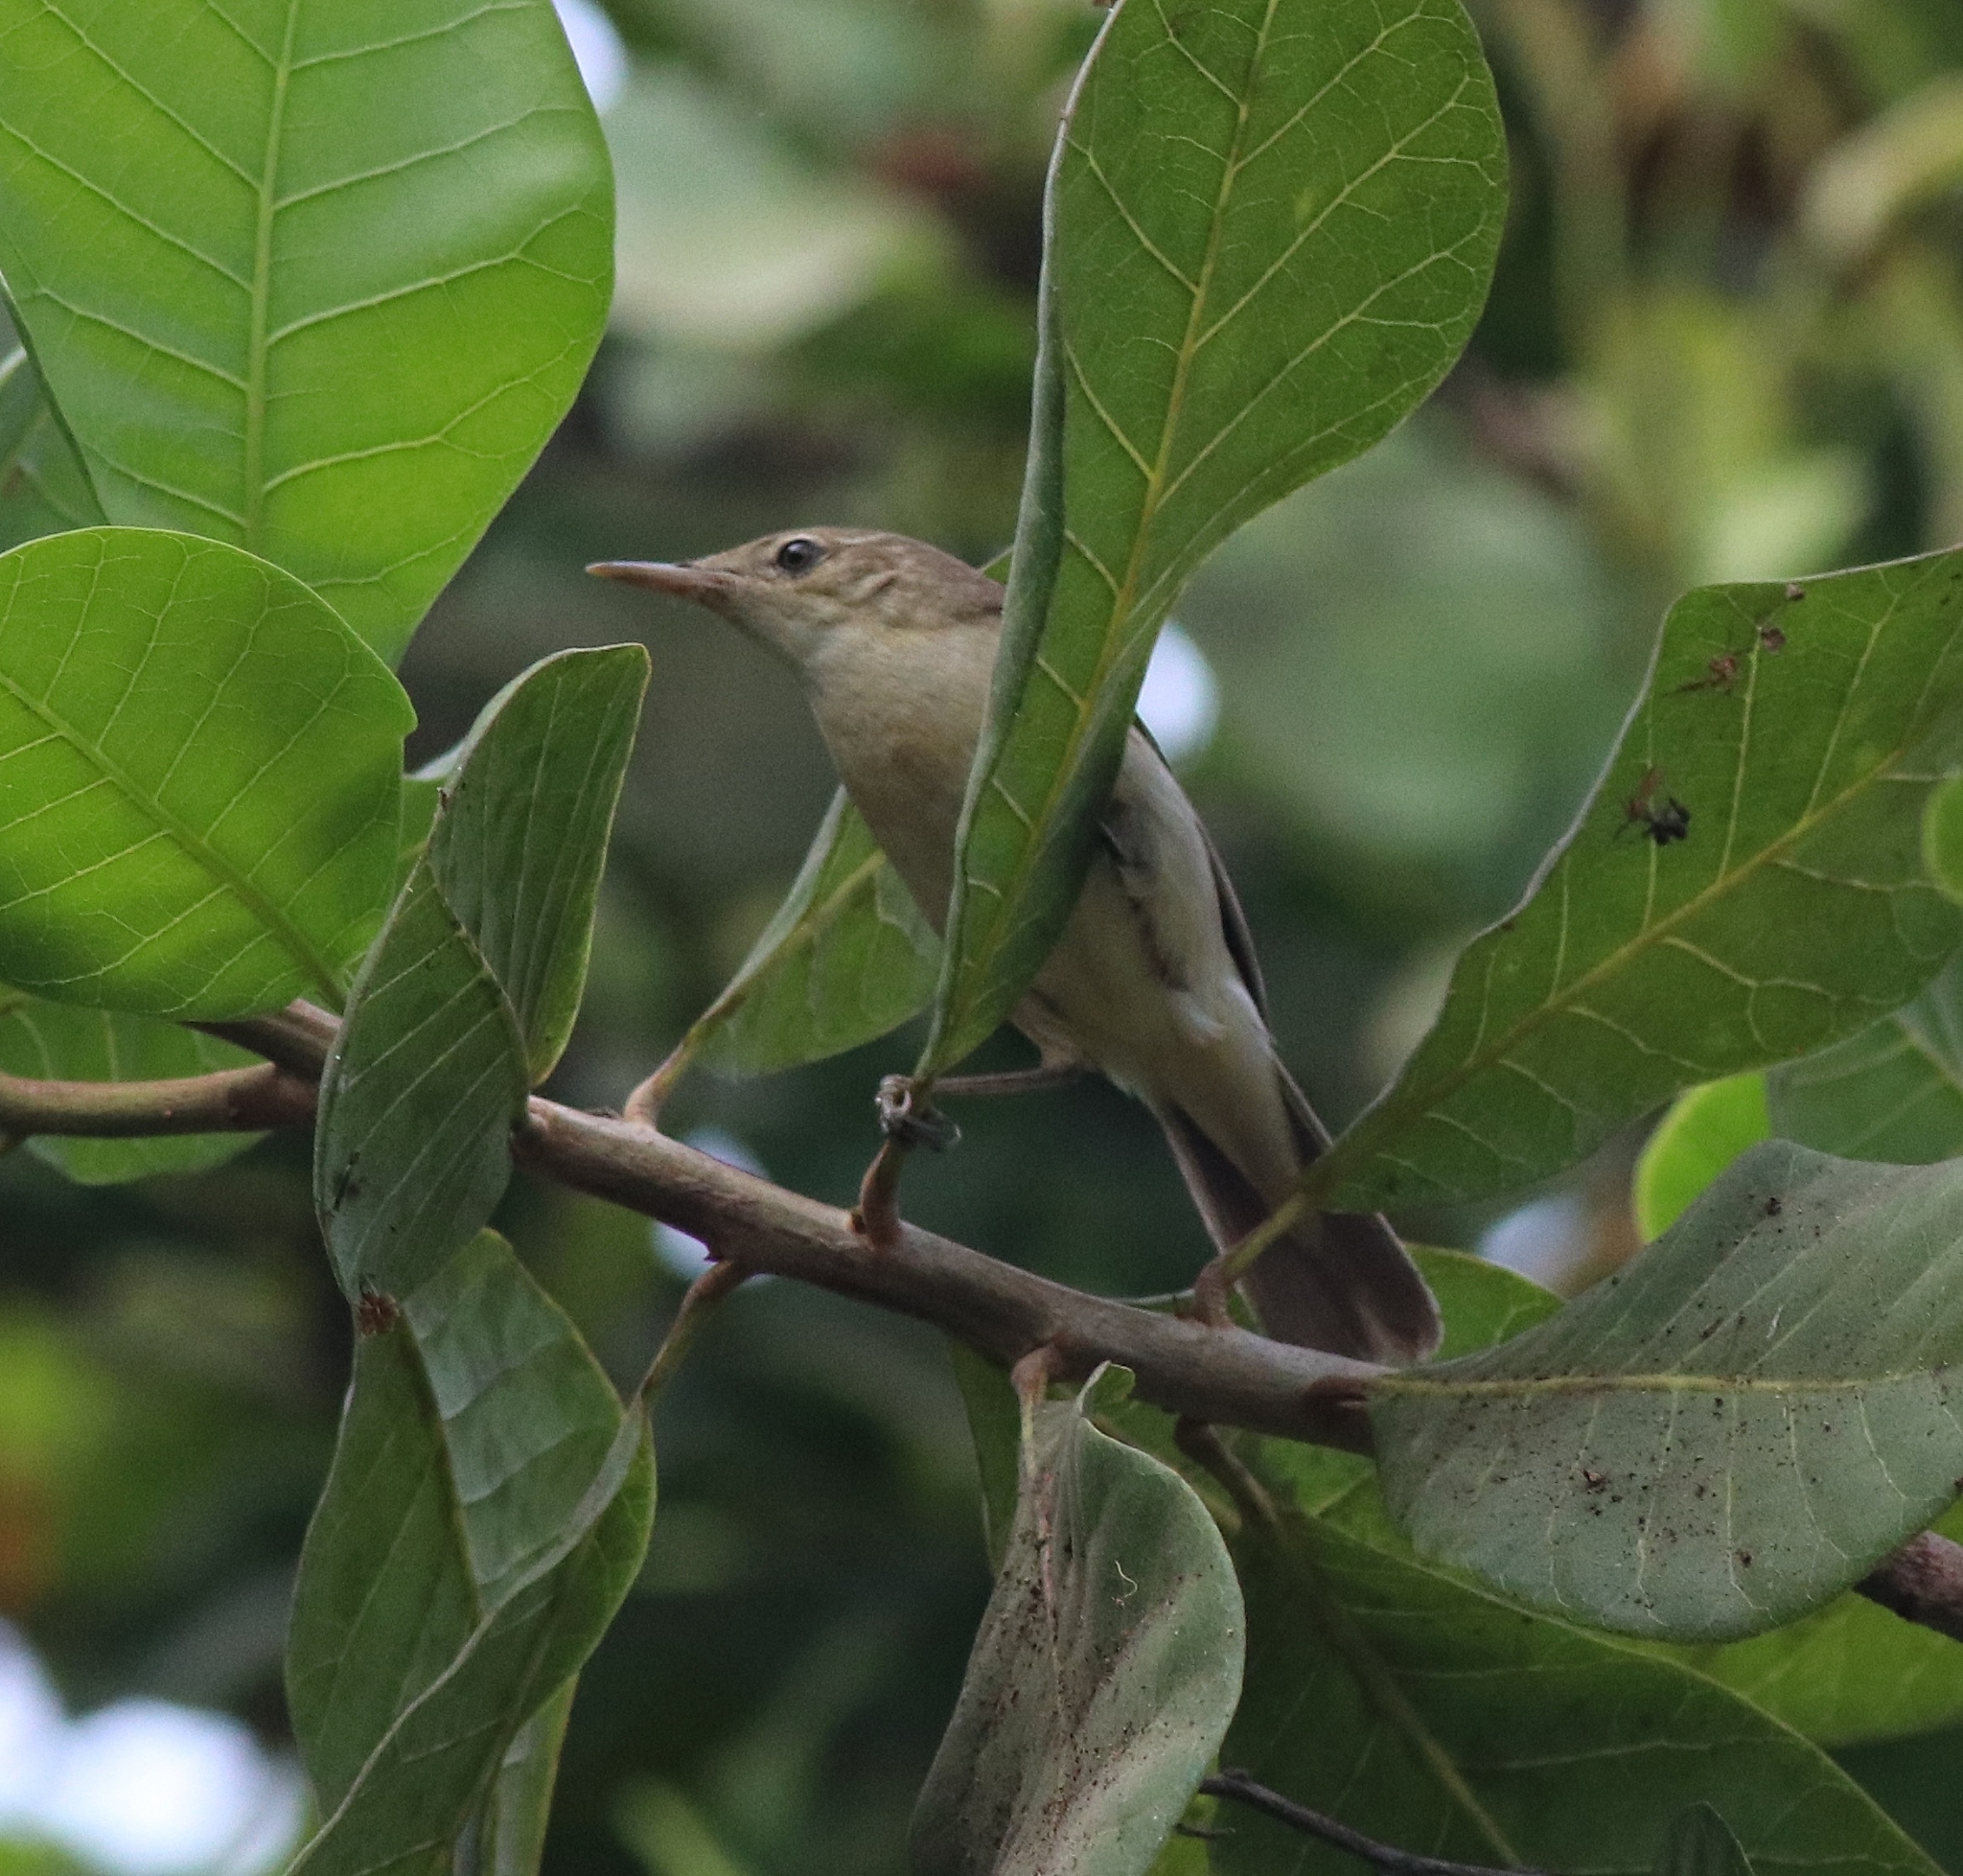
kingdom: Animalia
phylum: Chordata
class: Aves
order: Passeriformes
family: Acrocephalidae
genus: Acrocephalus
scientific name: Acrocephalus dumetorum
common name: Blyth's reed warbler
